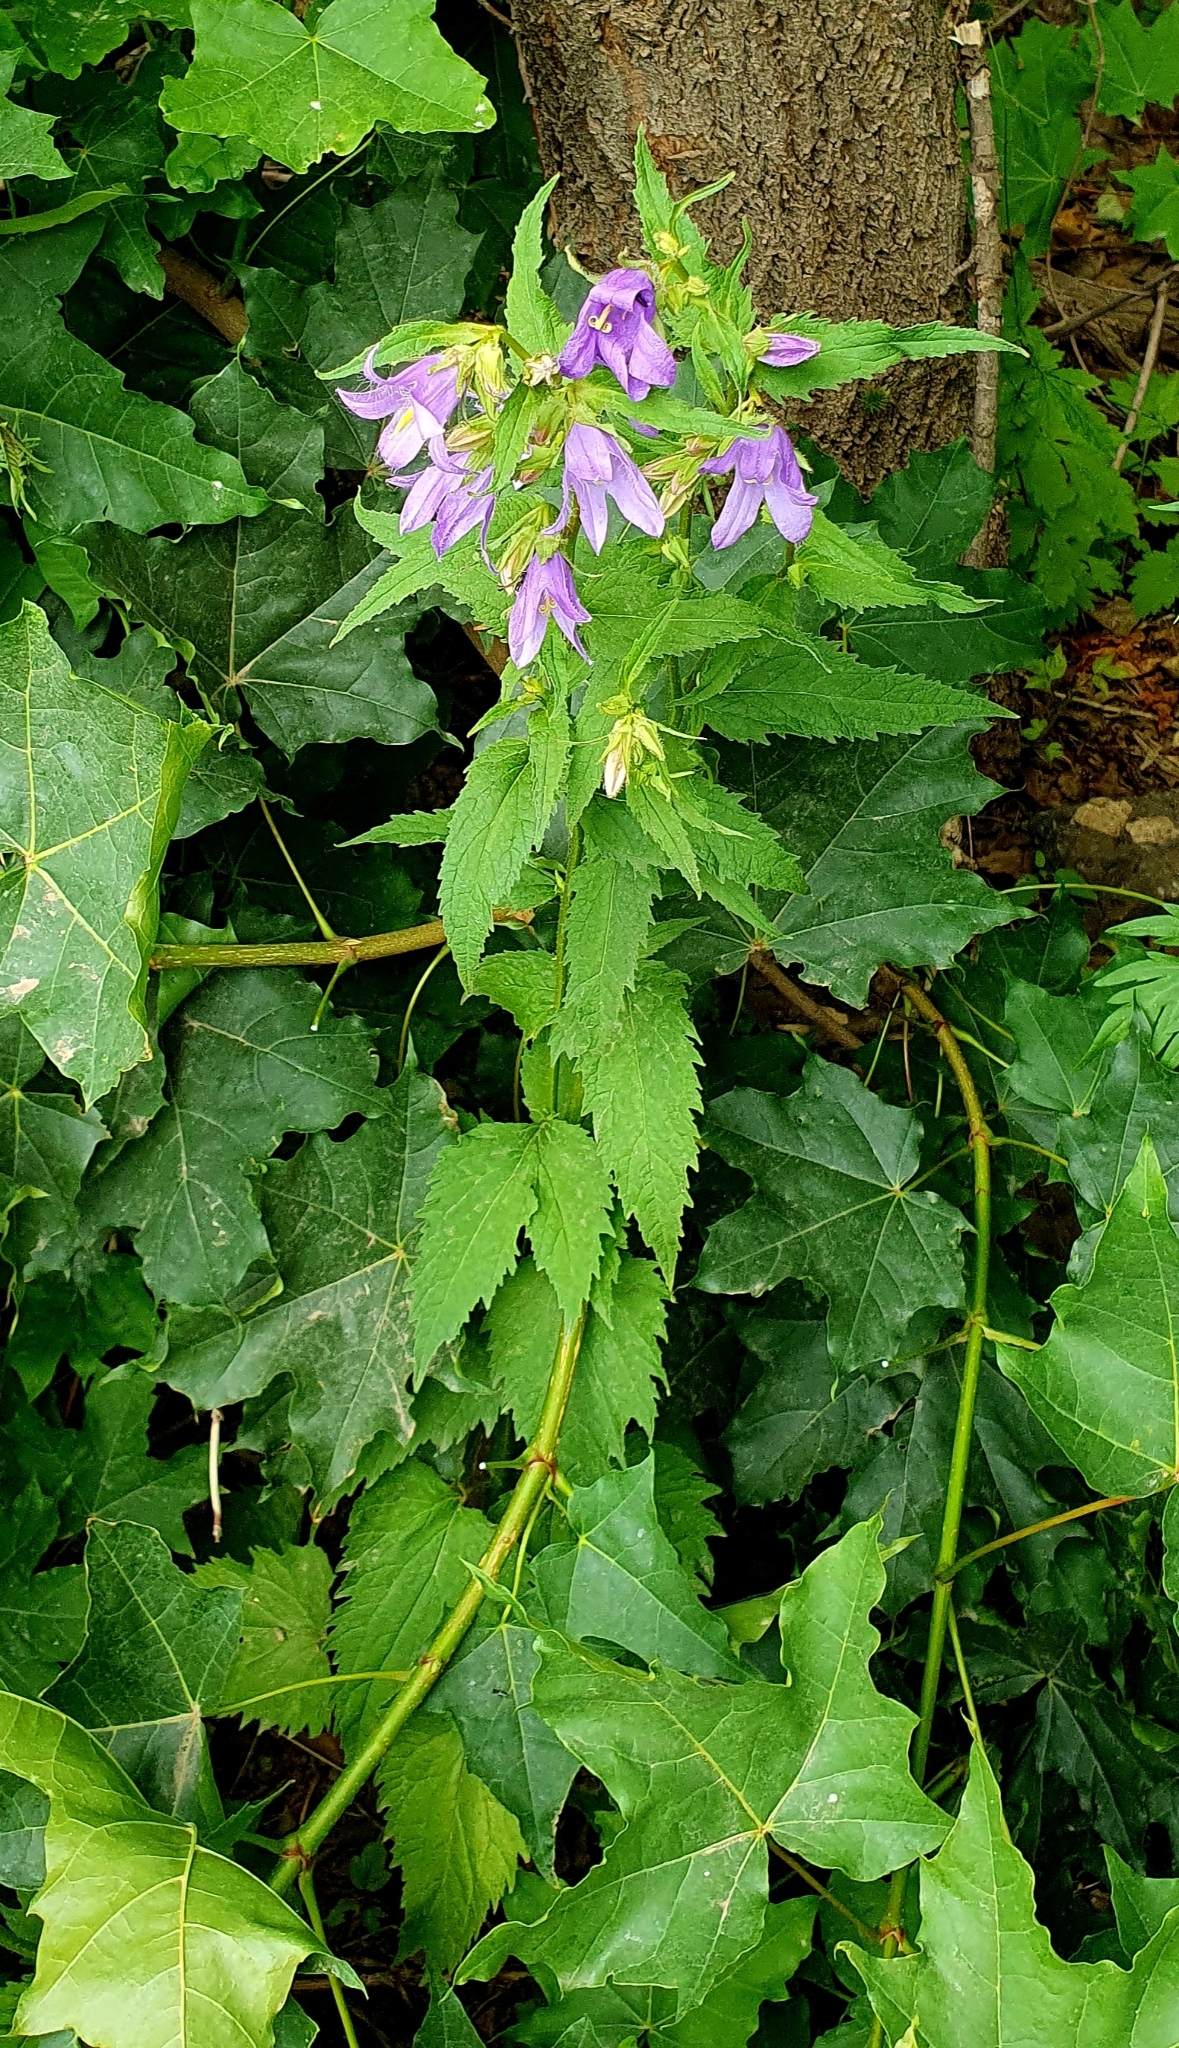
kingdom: Plantae
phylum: Tracheophyta
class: Magnoliopsida
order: Asterales
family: Campanulaceae
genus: Campanula
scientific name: Campanula trachelium
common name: Nettle-leaved bellflower
